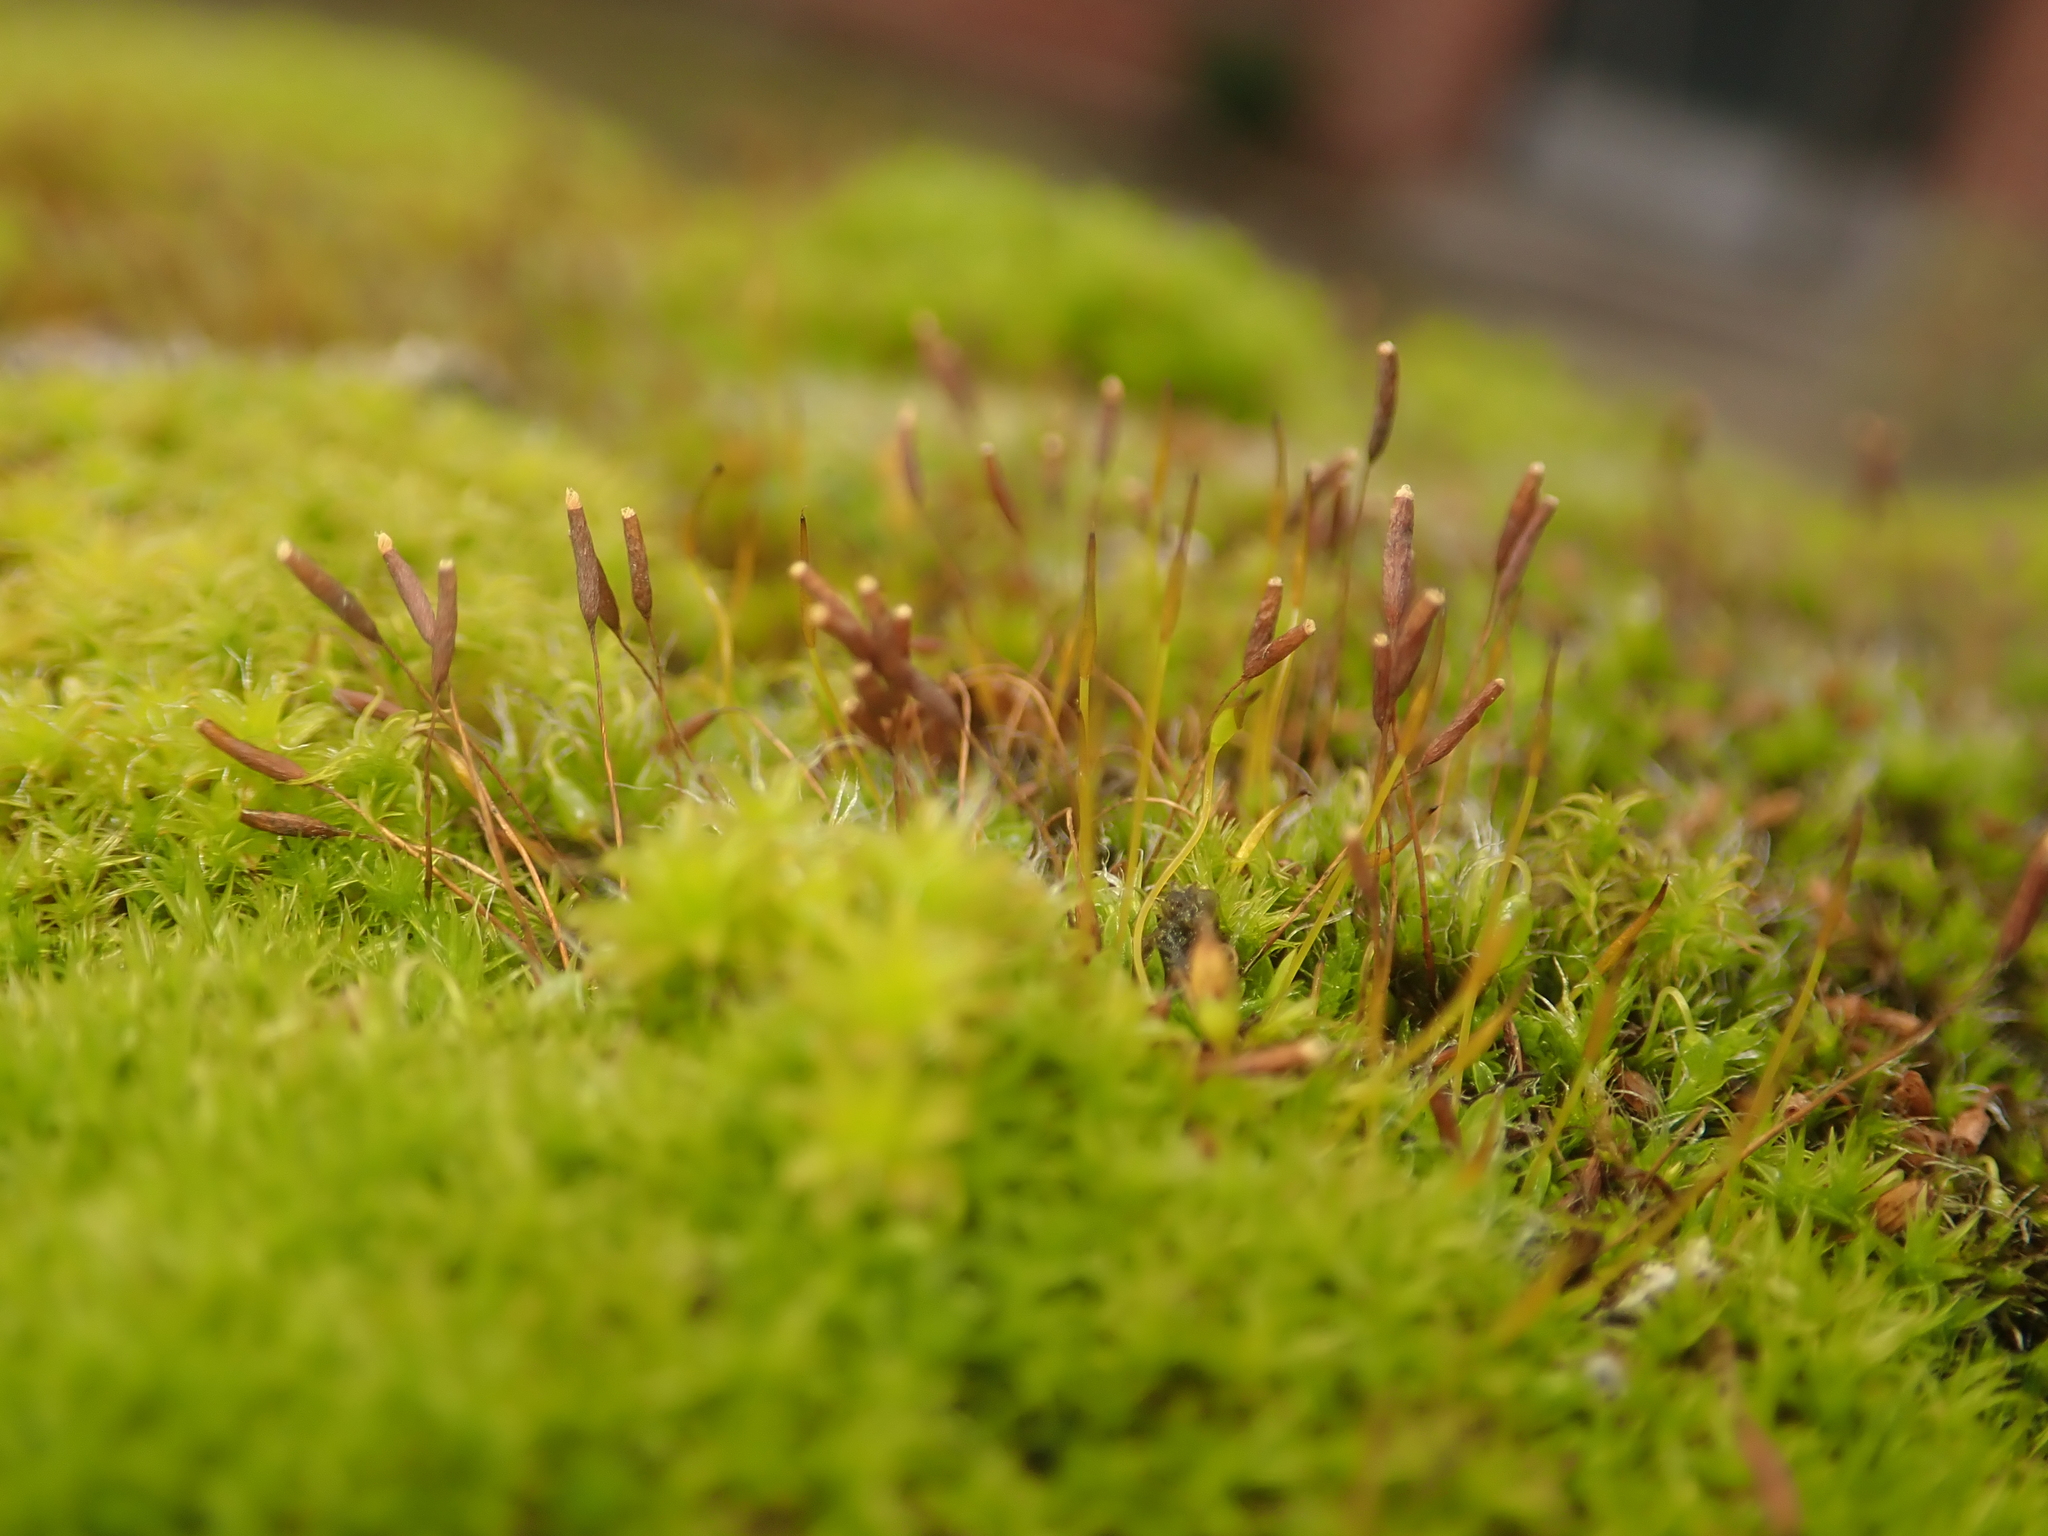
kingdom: Plantae
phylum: Bryophyta
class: Bryopsida
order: Pottiales
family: Pottiaceae
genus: Tortula
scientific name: Tortula muralis
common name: Wall screw-moss
